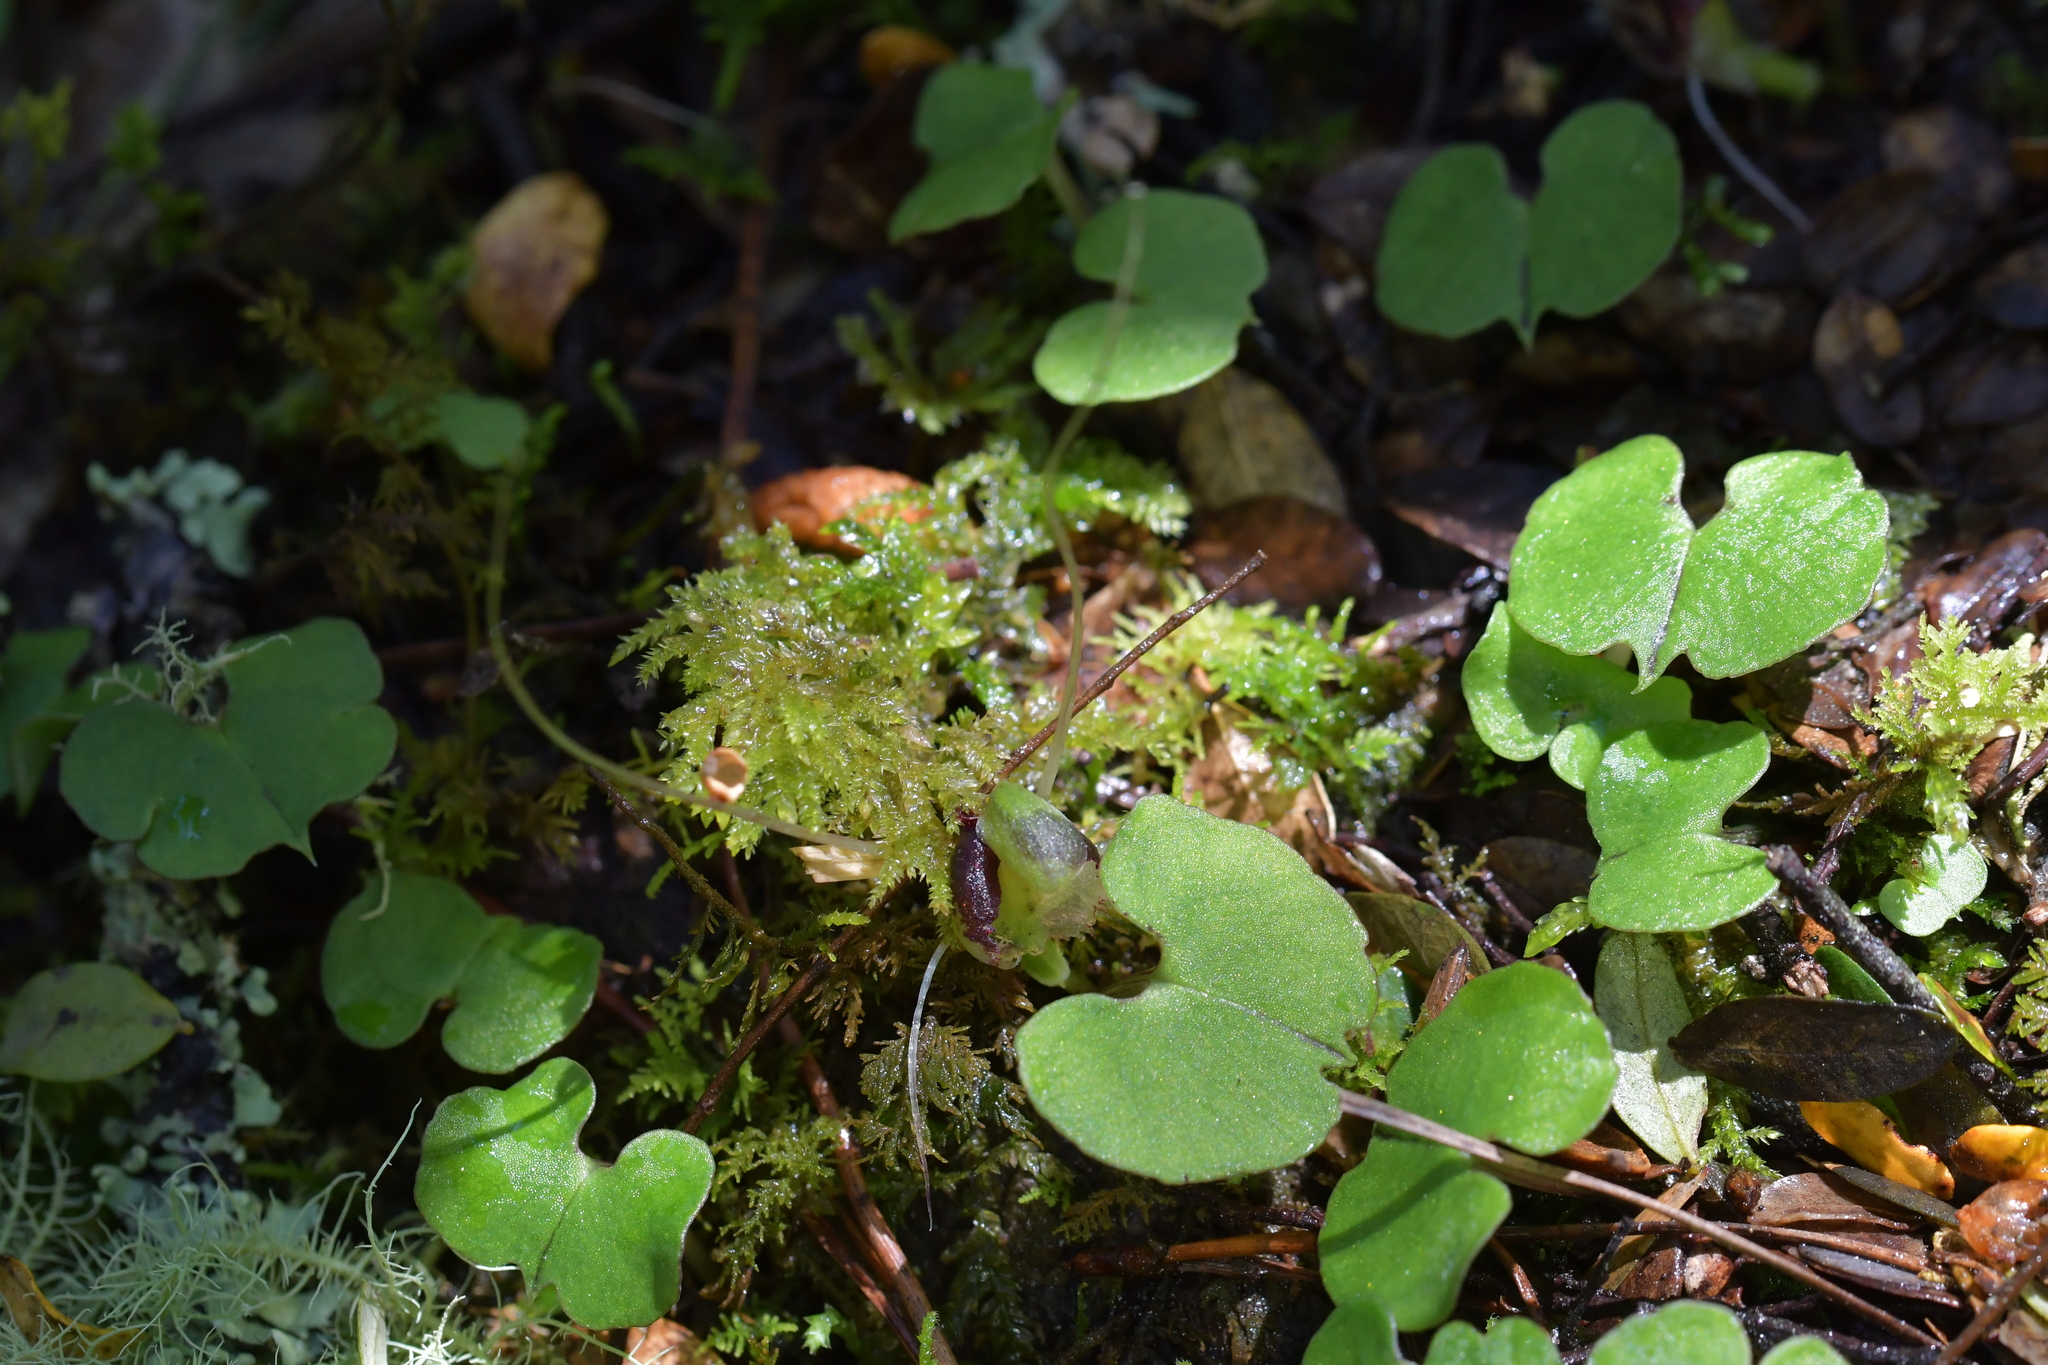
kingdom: Plantae
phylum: Tracheophyta
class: Liliopsida
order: Asparagales
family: Orchidaceae
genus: Corybas
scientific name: Corybas vitreus
